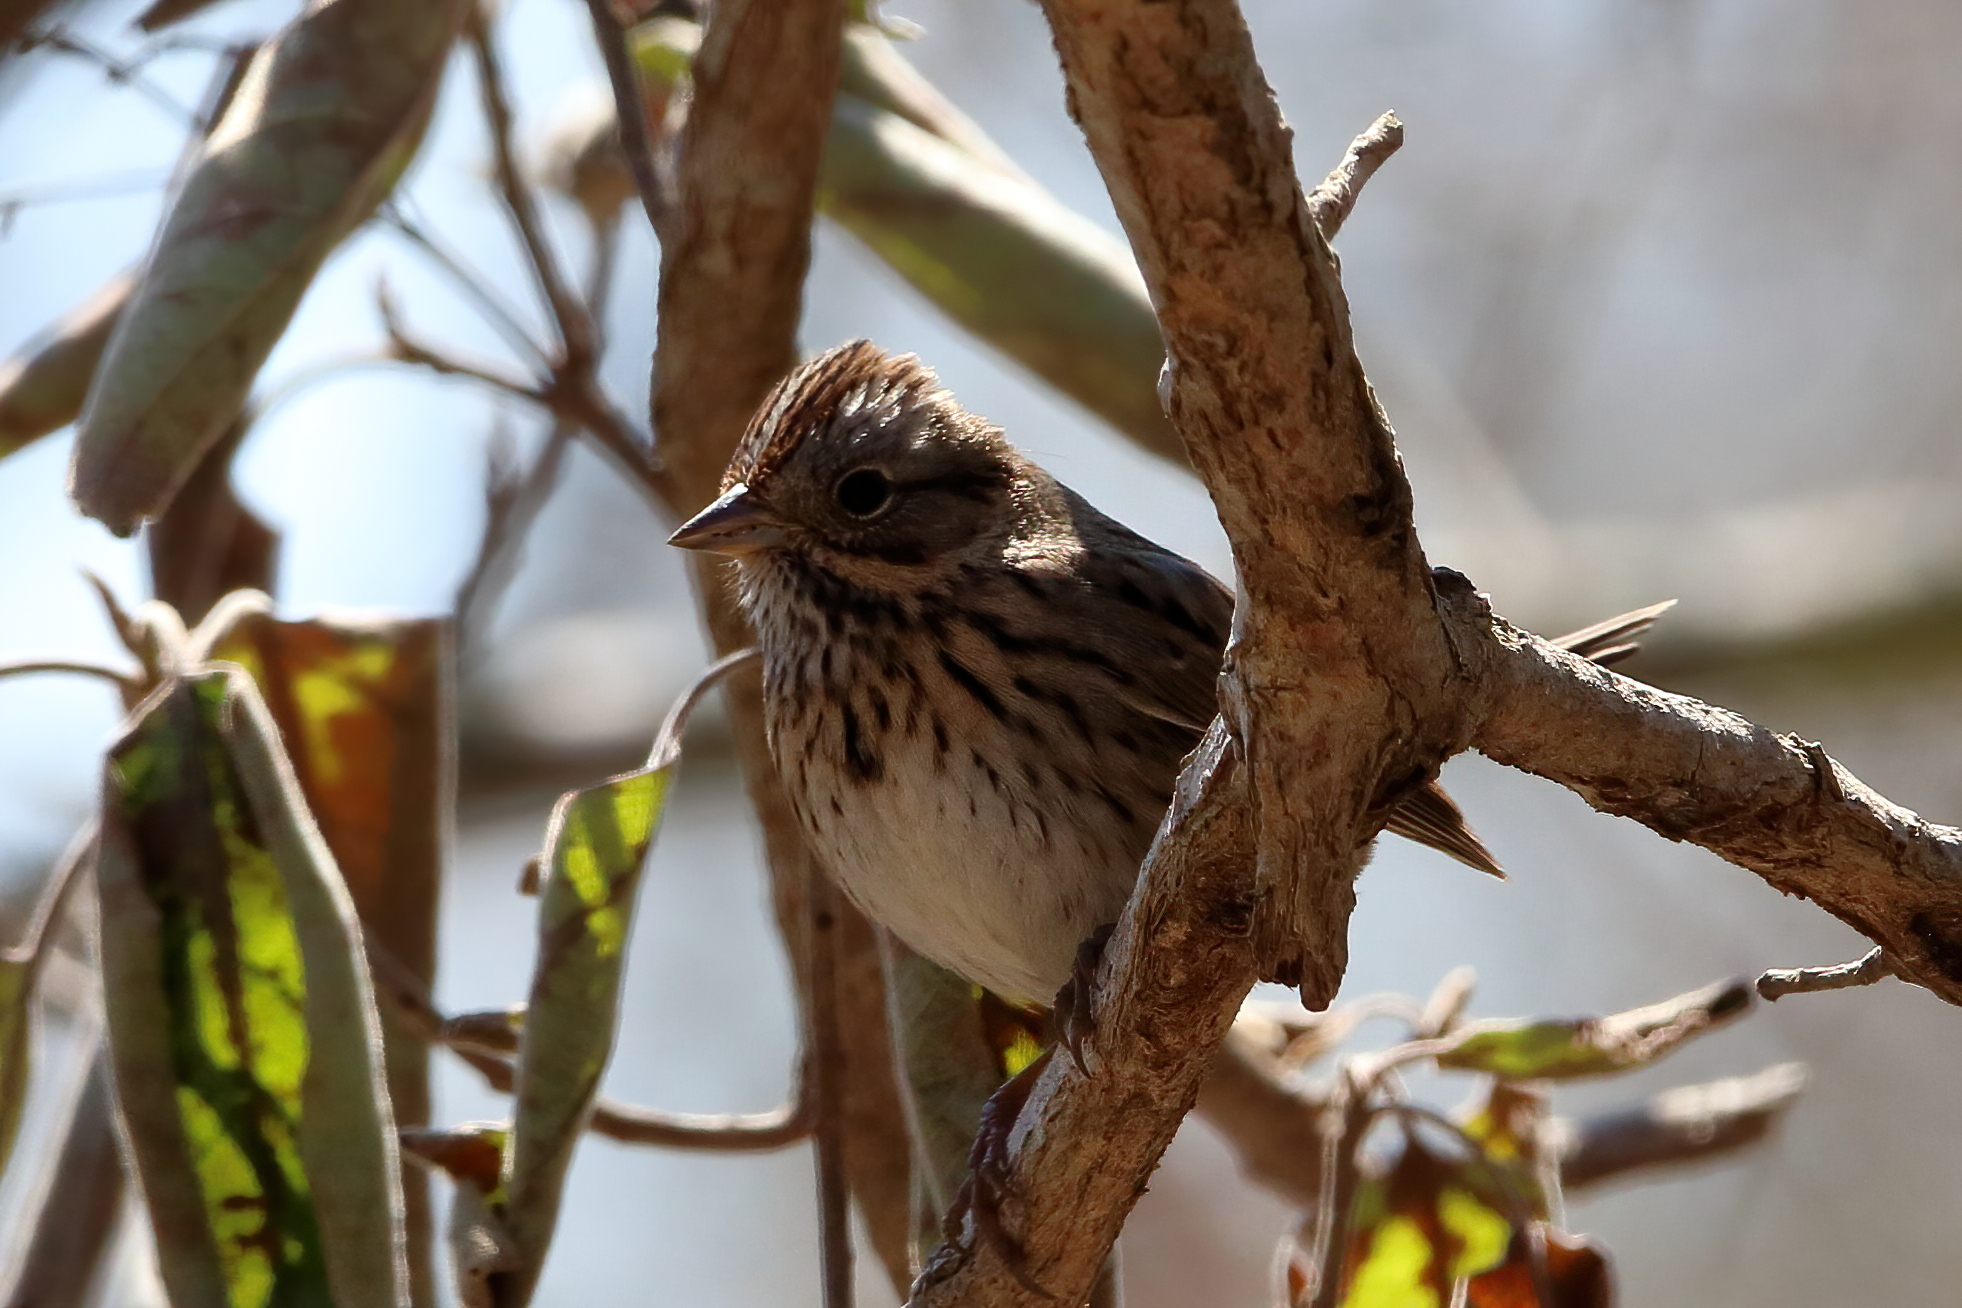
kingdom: Animalia
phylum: Chordata
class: Aves
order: Passeriformes
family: Passerellidae
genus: Melospiza
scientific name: Melospiza lincolnii
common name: Lincoln's sparrow
